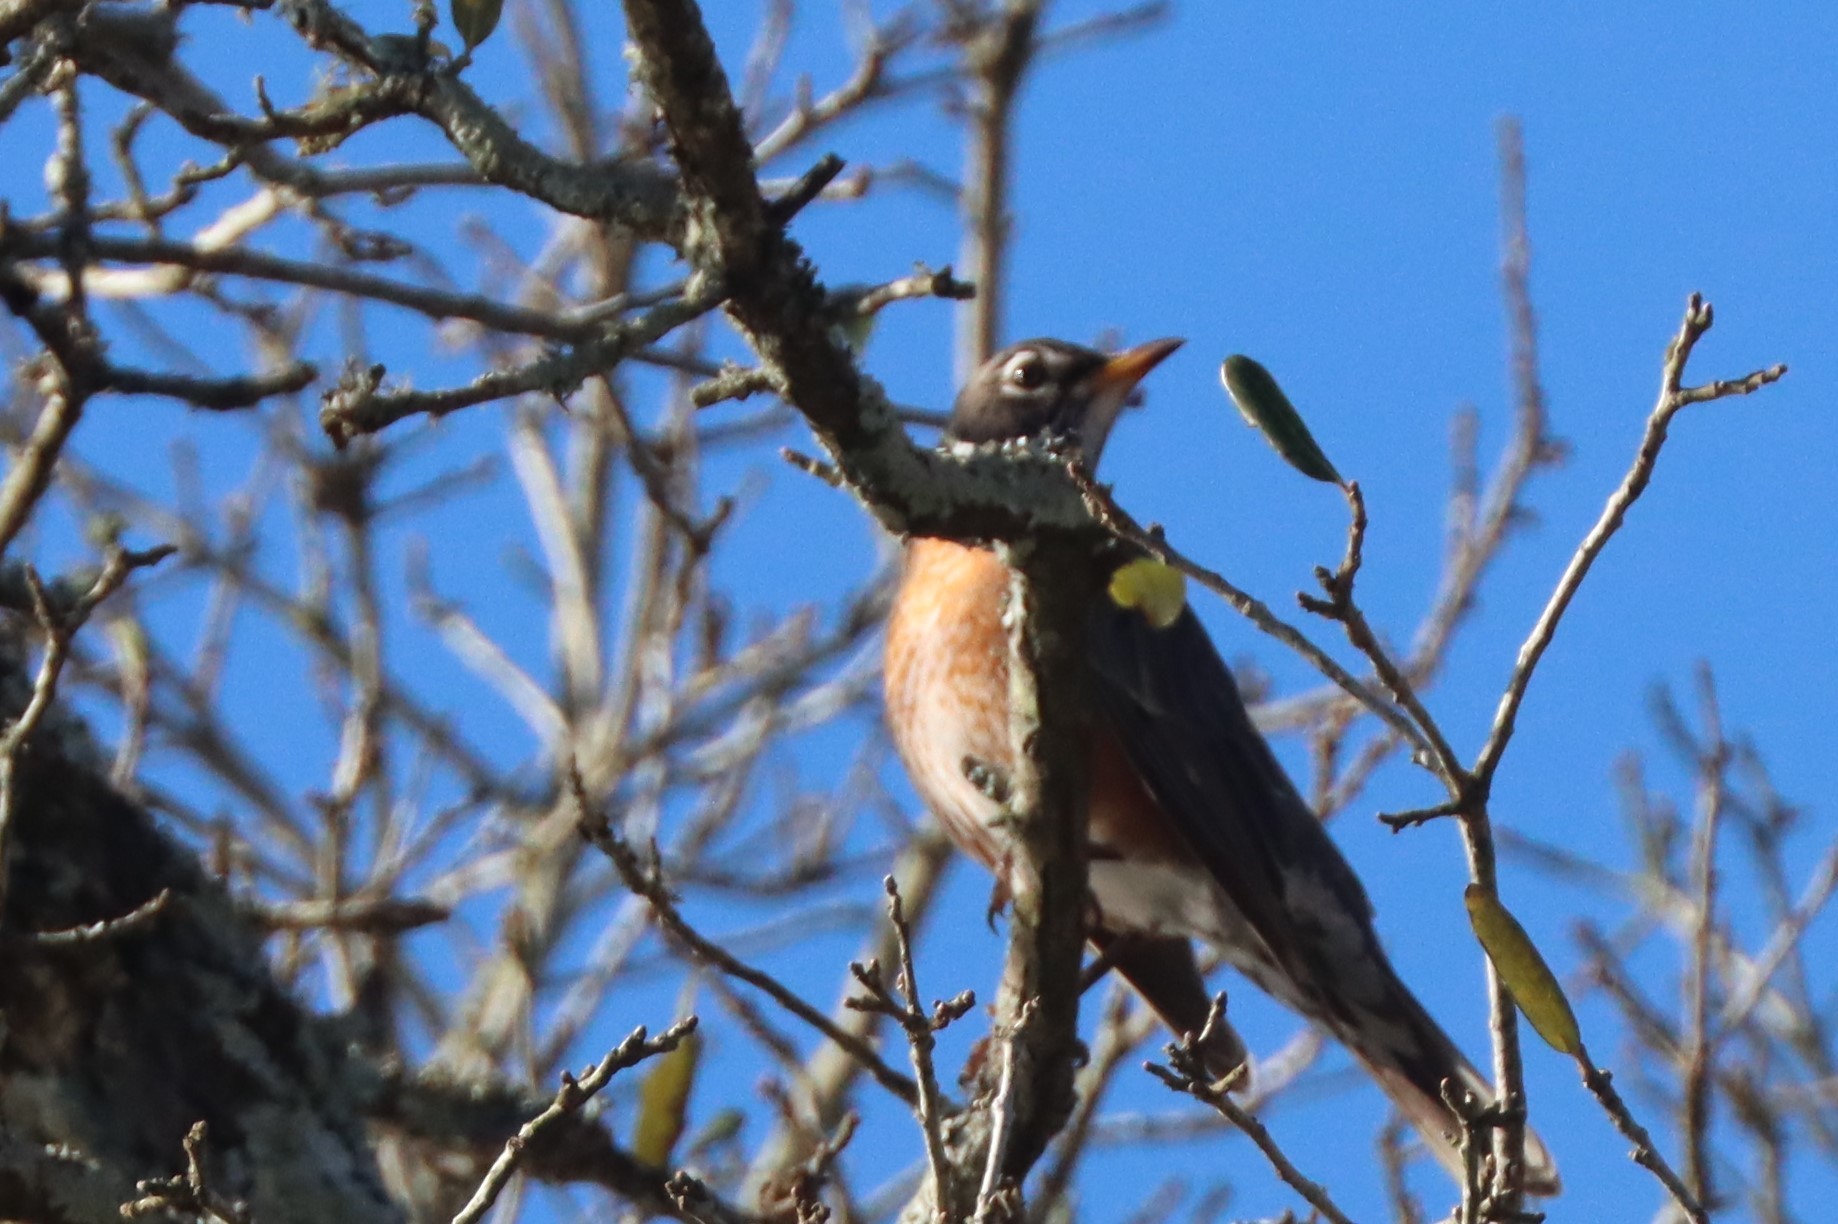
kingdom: Animalia
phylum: Chordata
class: Aves
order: Passeriformes
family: Turdidae
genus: Turdus
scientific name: Turdus migratorius
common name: American robin
